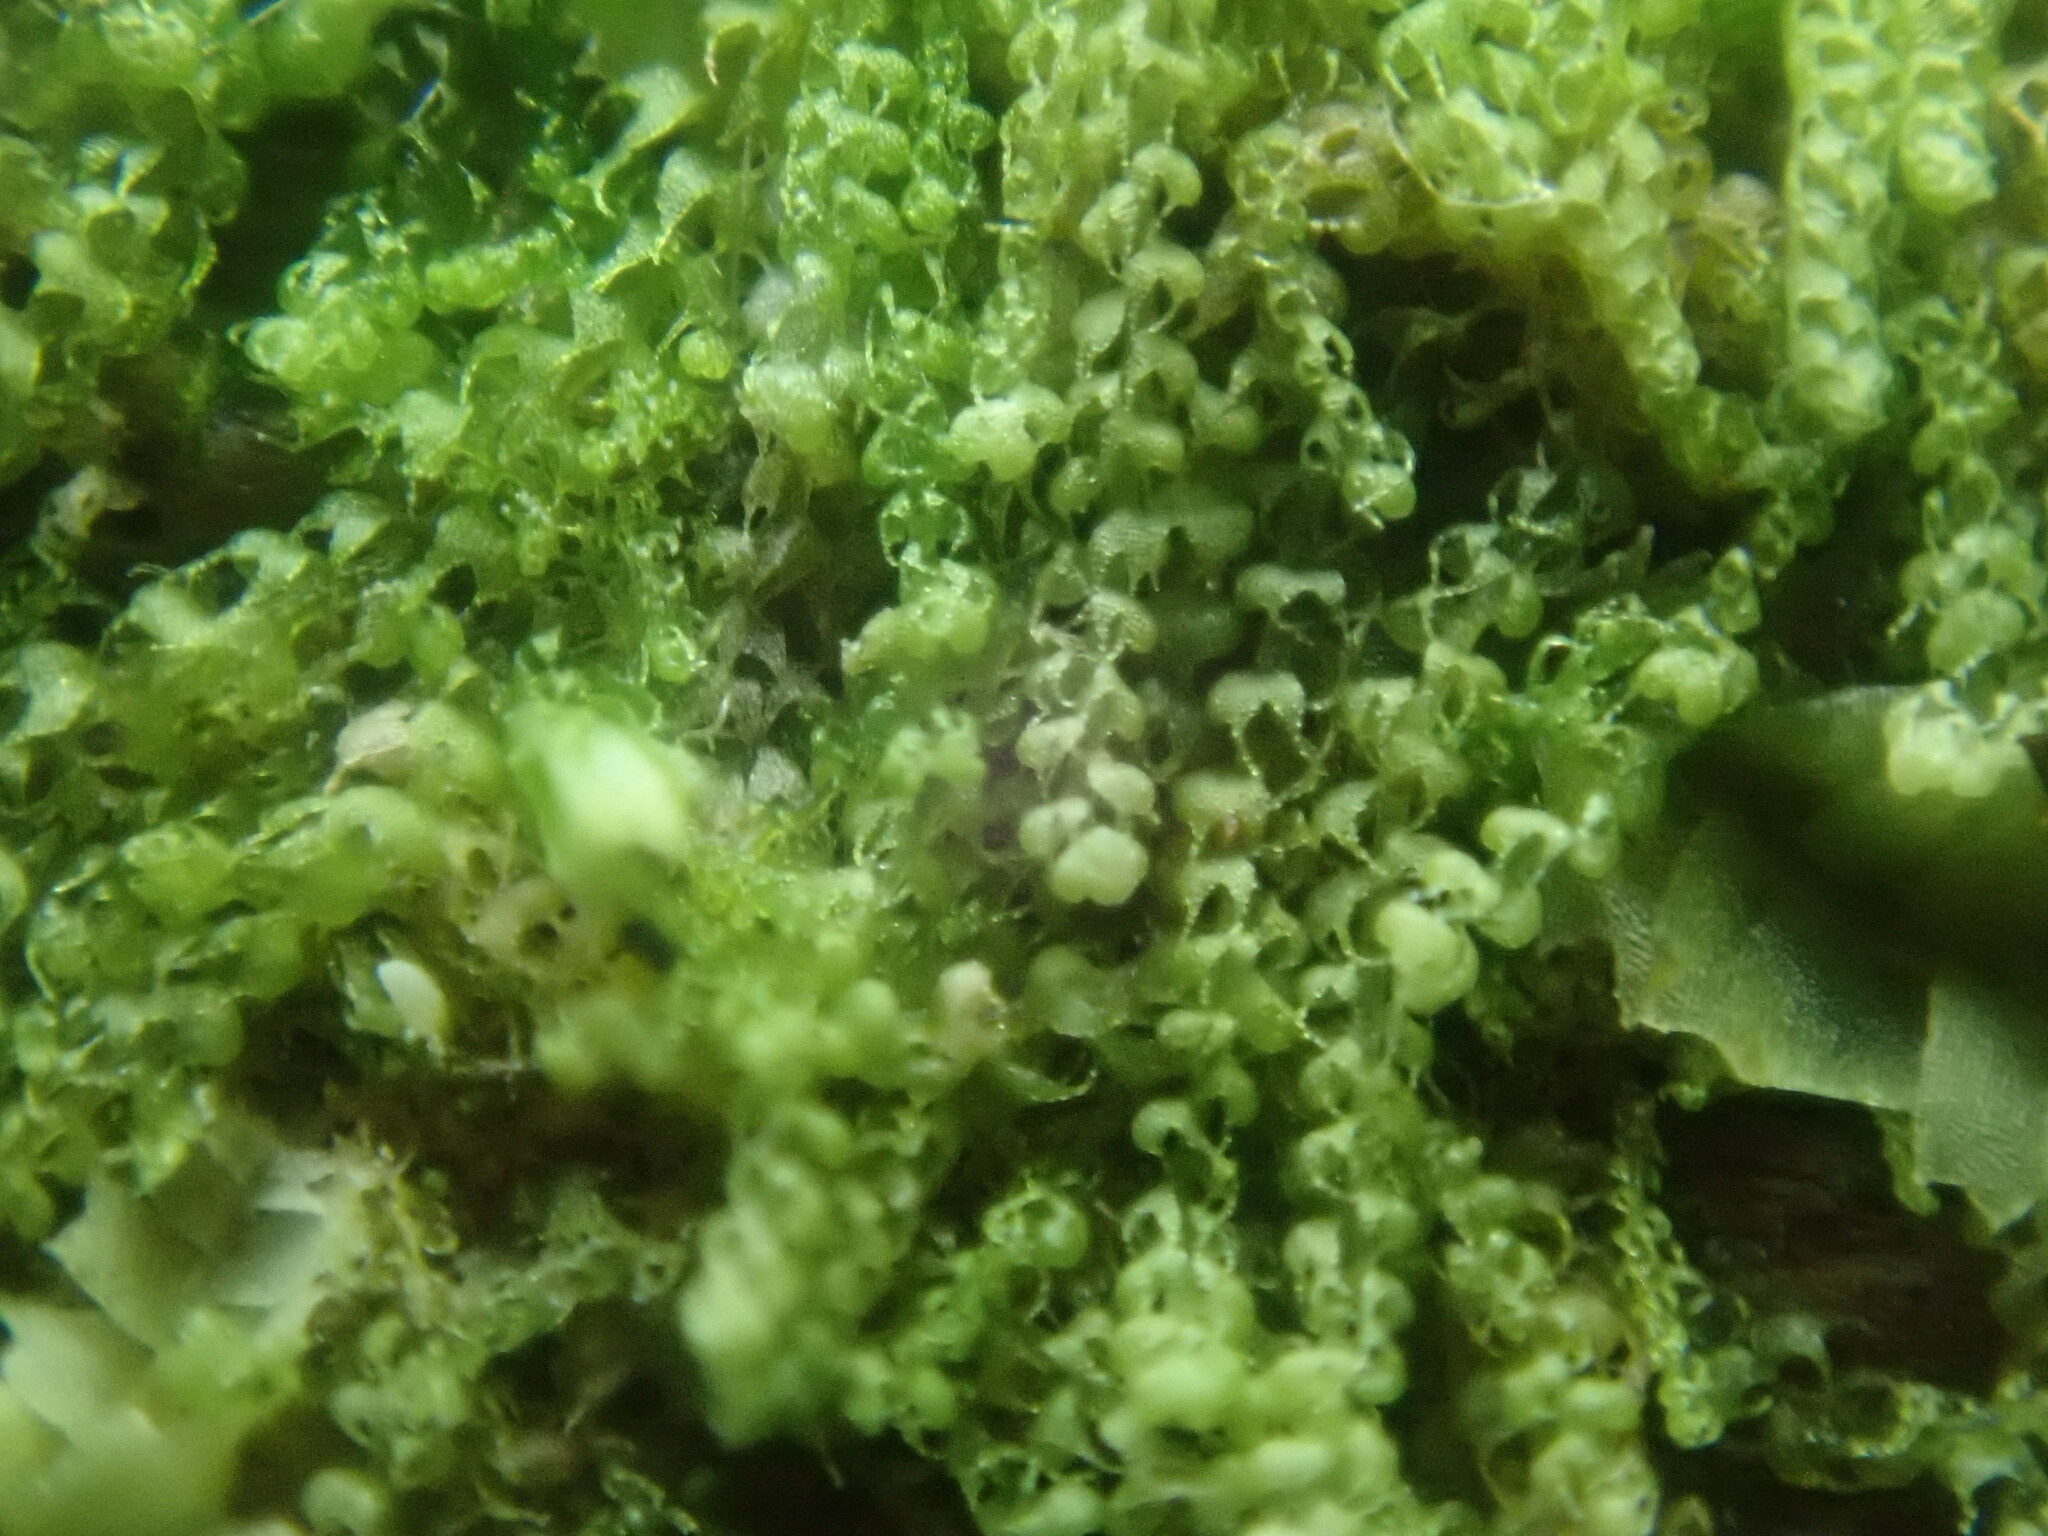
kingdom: Plantae
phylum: Marchantiophyta
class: Jungermanniopsida
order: Jungermanniales
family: Cephaloziaceae
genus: Nowellia
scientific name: Nowellia curvifolia
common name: Wood rustwort
